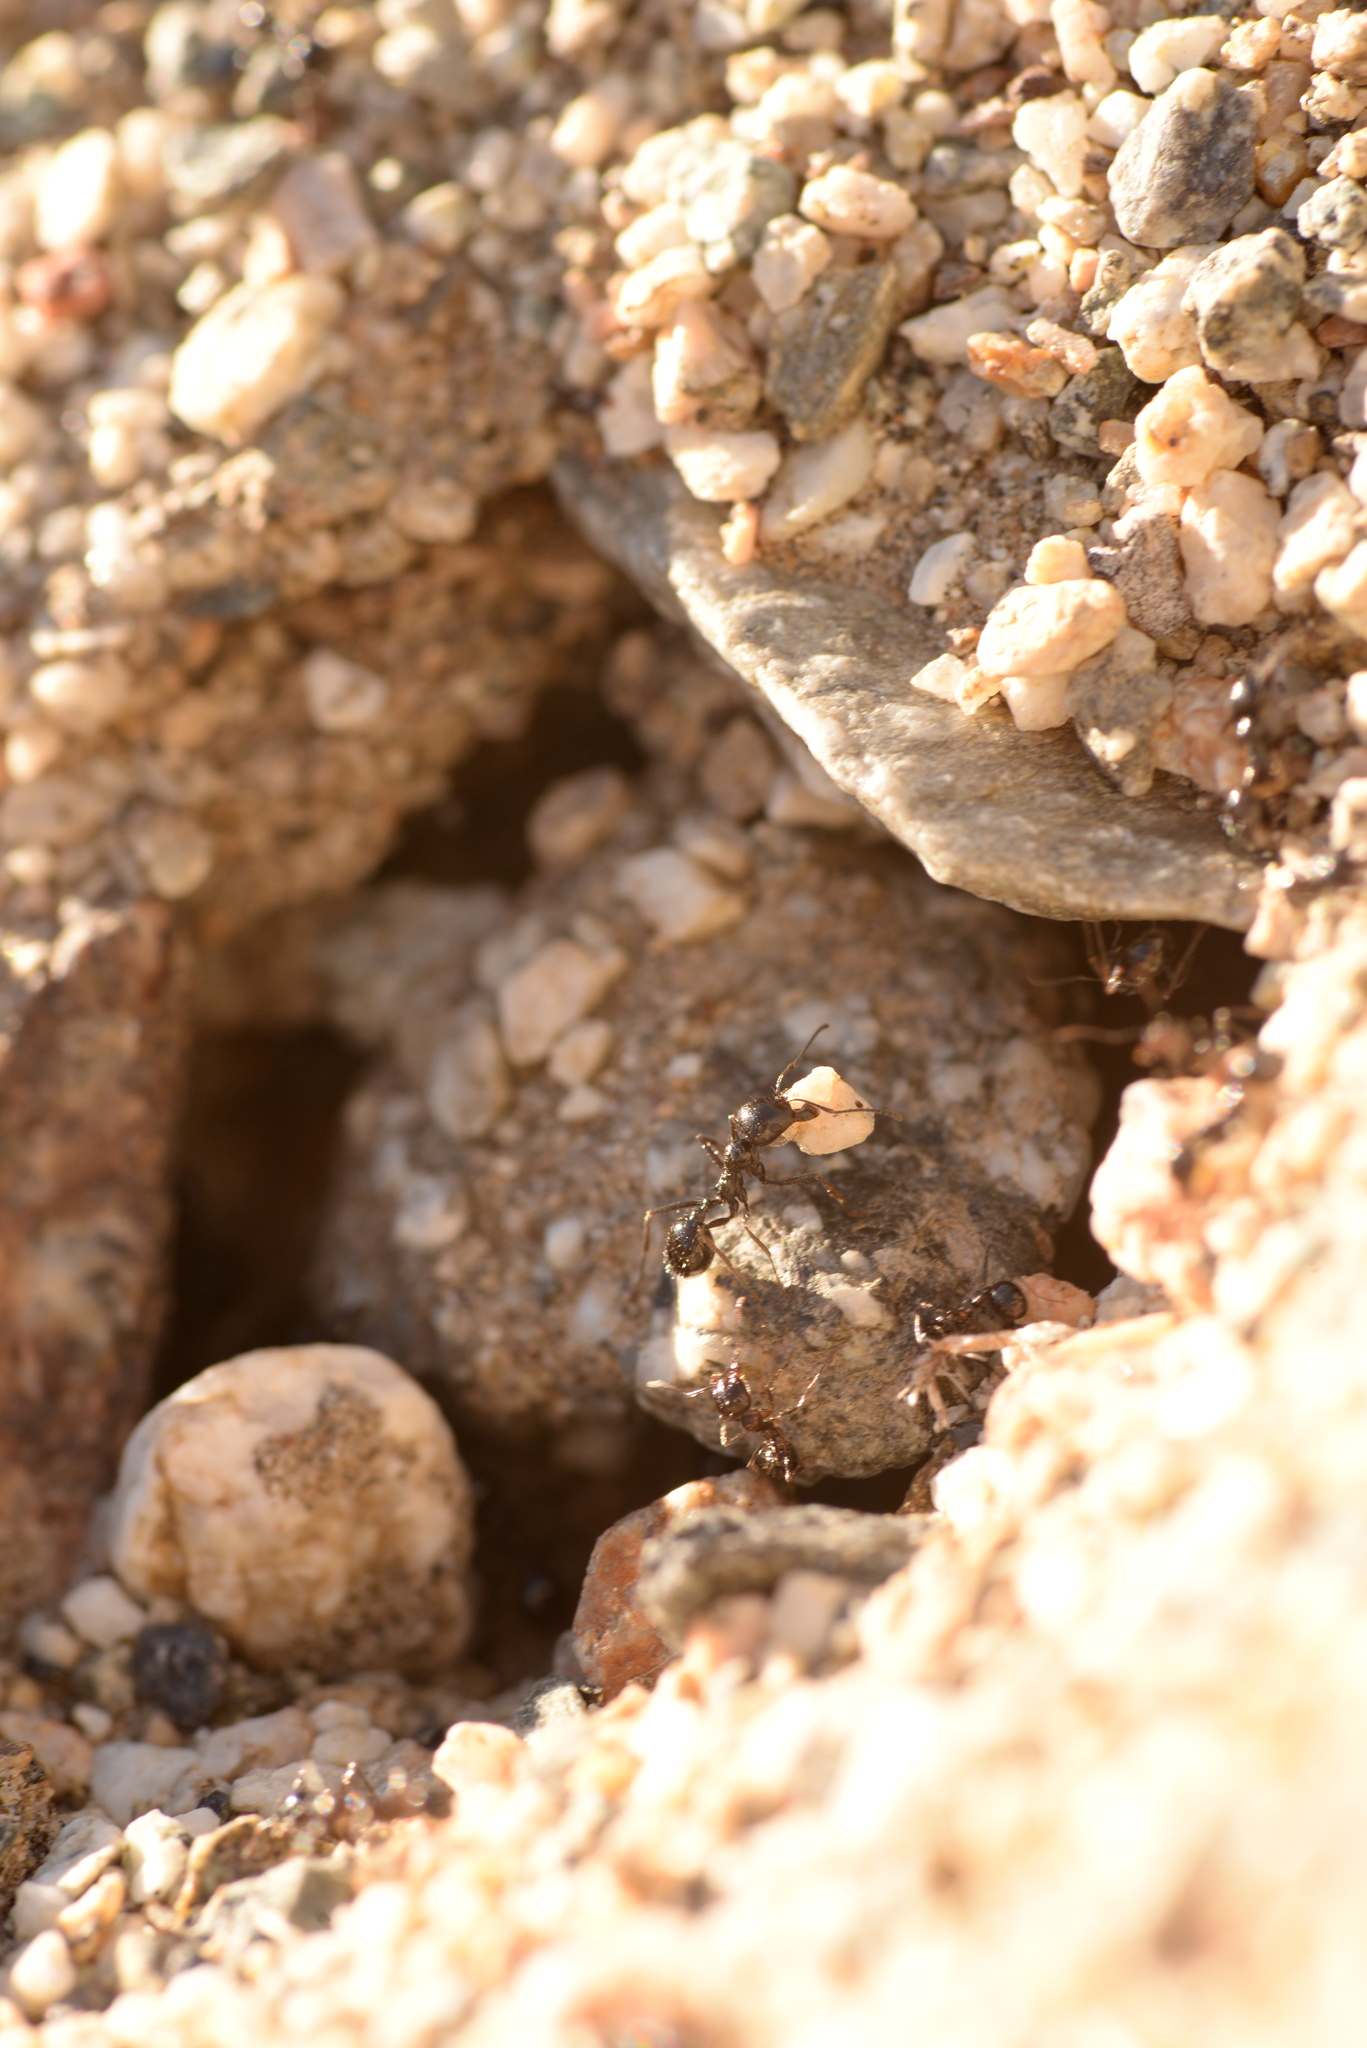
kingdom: Animalia
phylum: Arthropoda
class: Insecta
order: Hymenoptera
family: Formicidae
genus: Messor
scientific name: Messor pergandei
